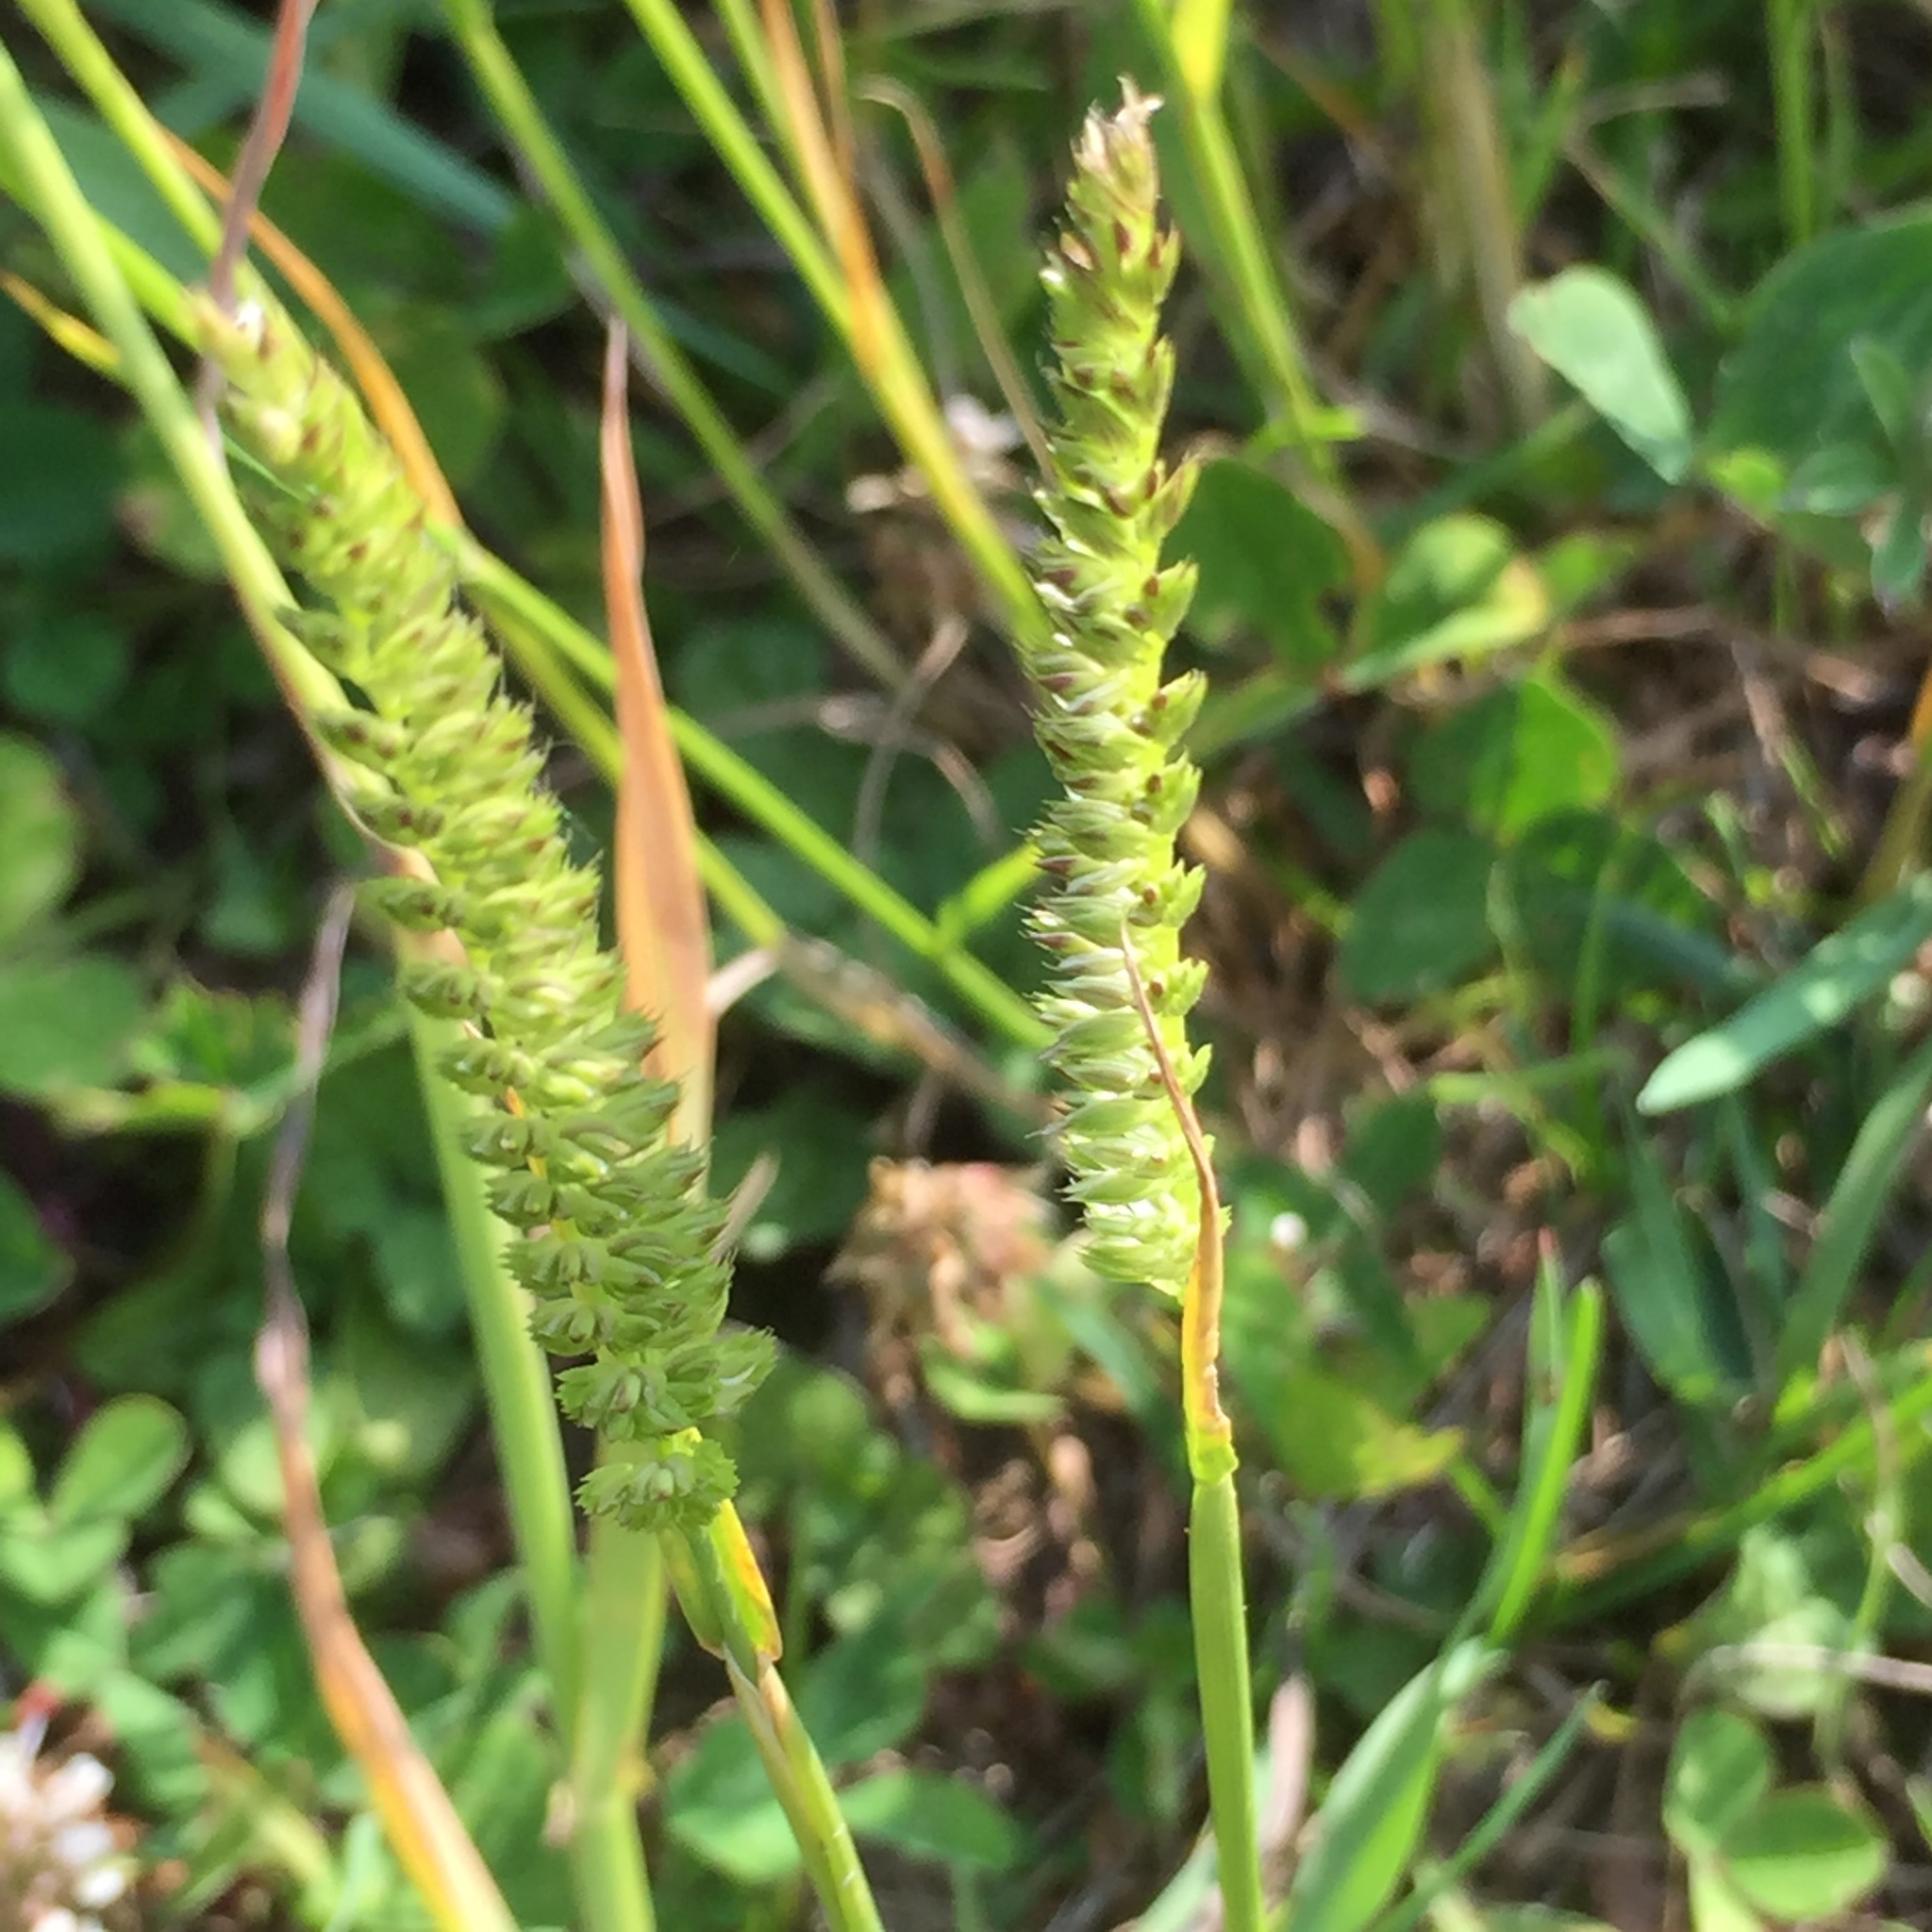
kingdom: Plantae
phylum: Tracheophyta
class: Liliopsida
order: Poales
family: Poaceae
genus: Cynosurus
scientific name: Cynosurus cristatus
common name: Crested dog's-tail
